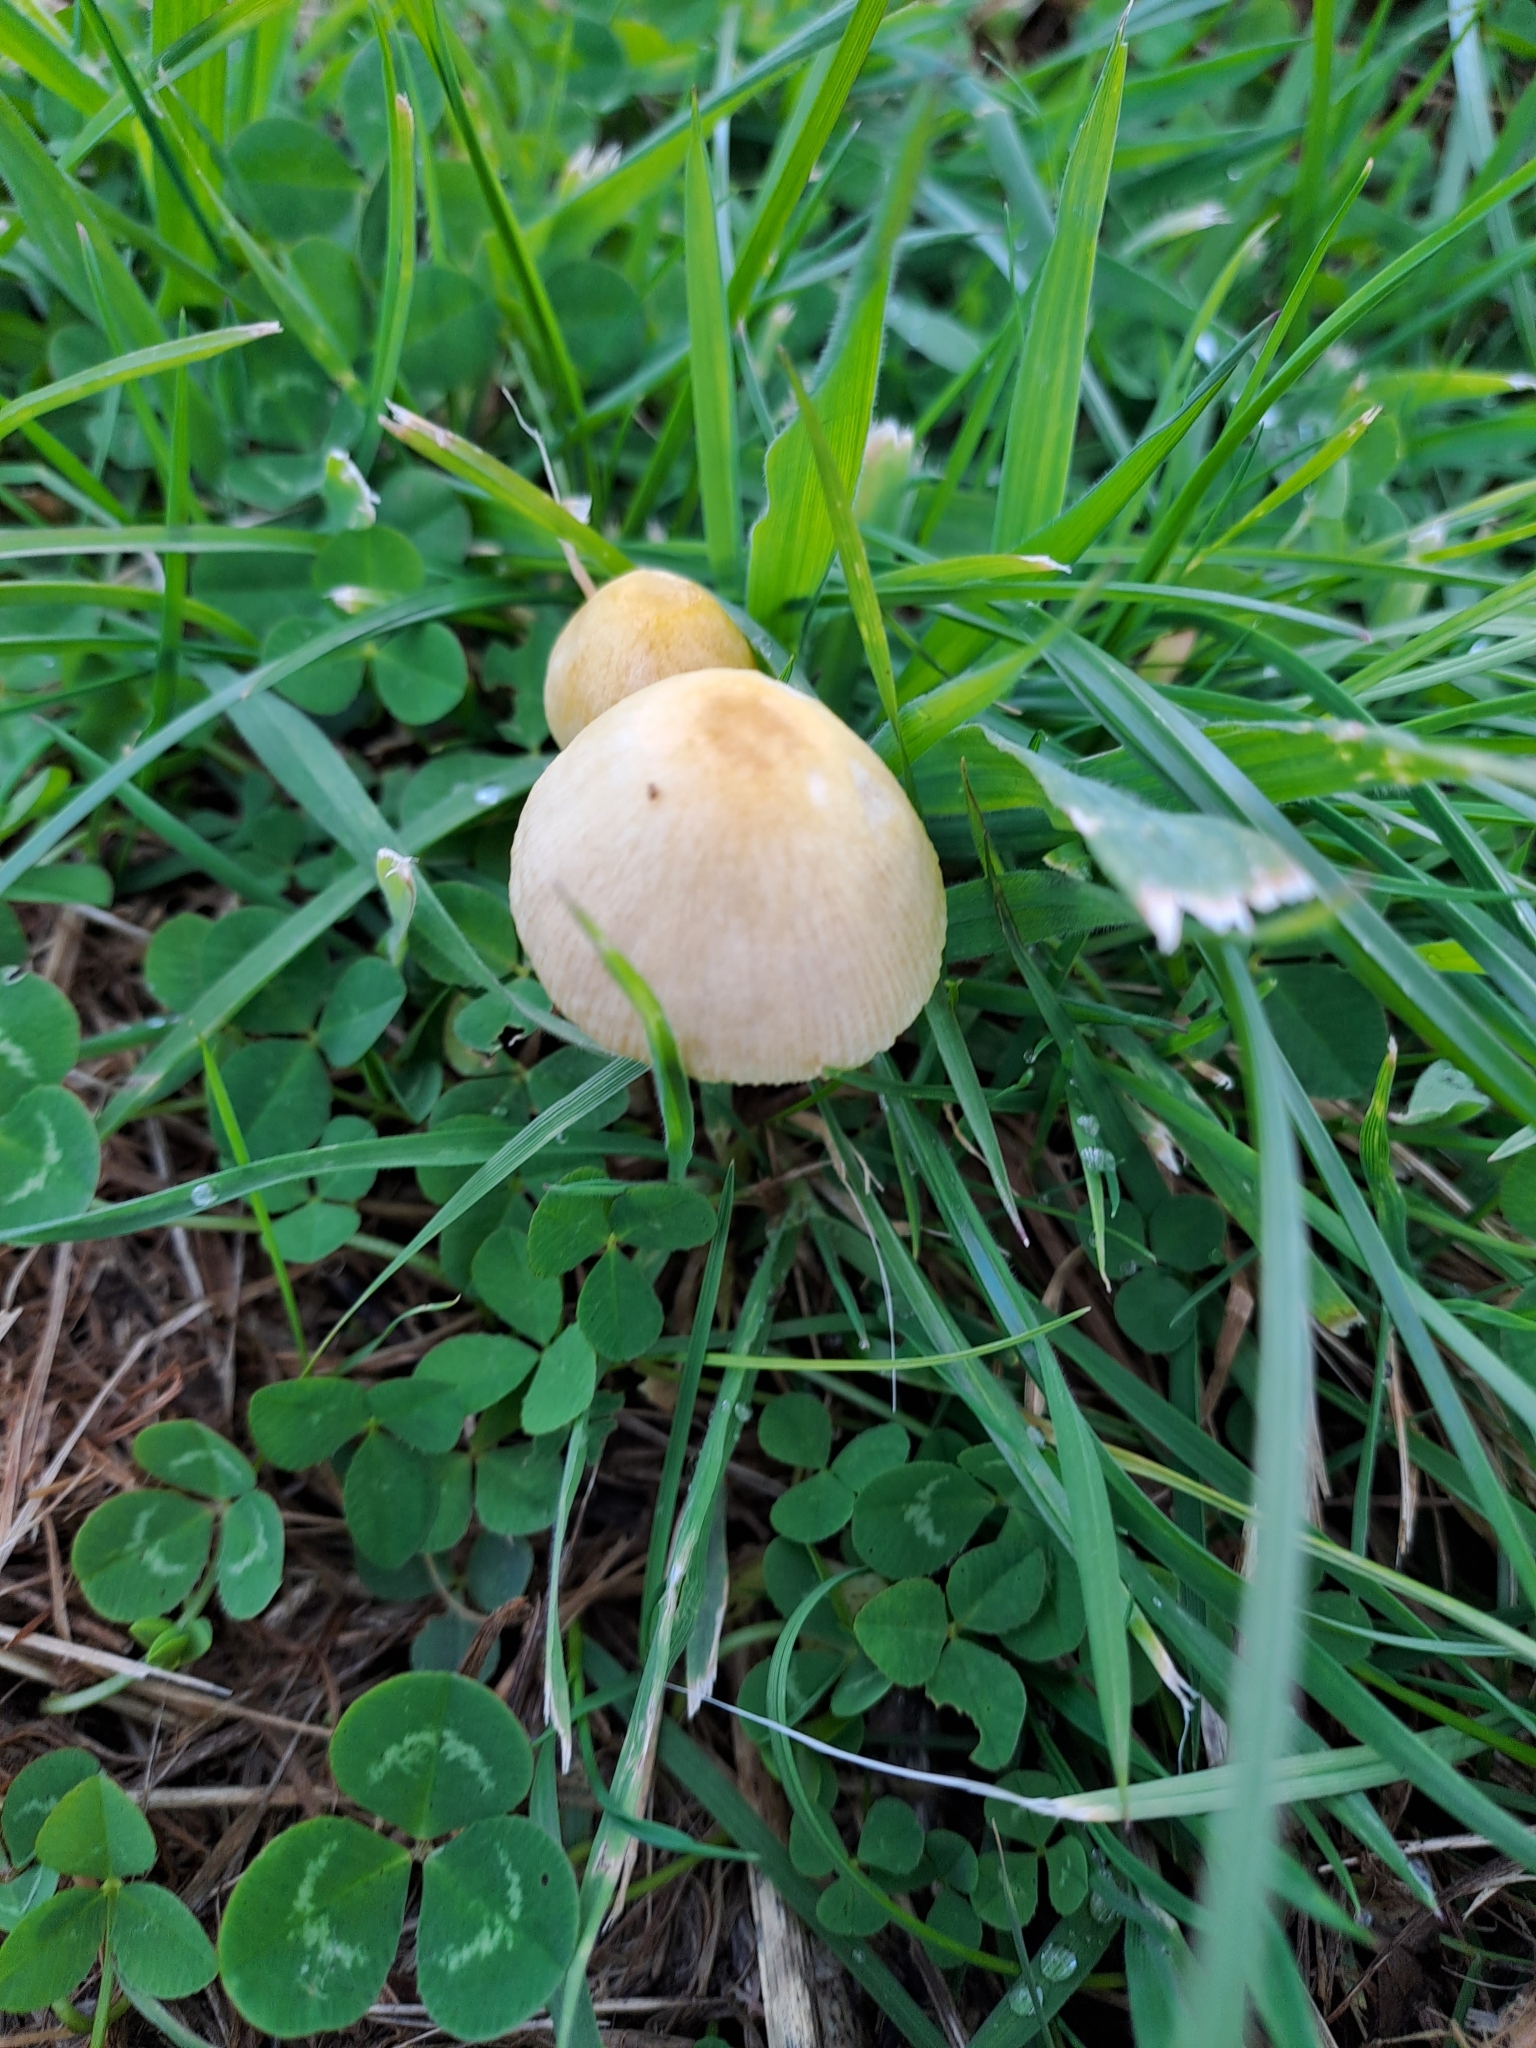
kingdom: Fungi
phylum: Basidiomycota
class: Agaricomycetes
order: Agaricales
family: Bolbitiaceae
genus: Bolbitius
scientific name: Bolbitius titubans
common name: Yellow fieldcap
